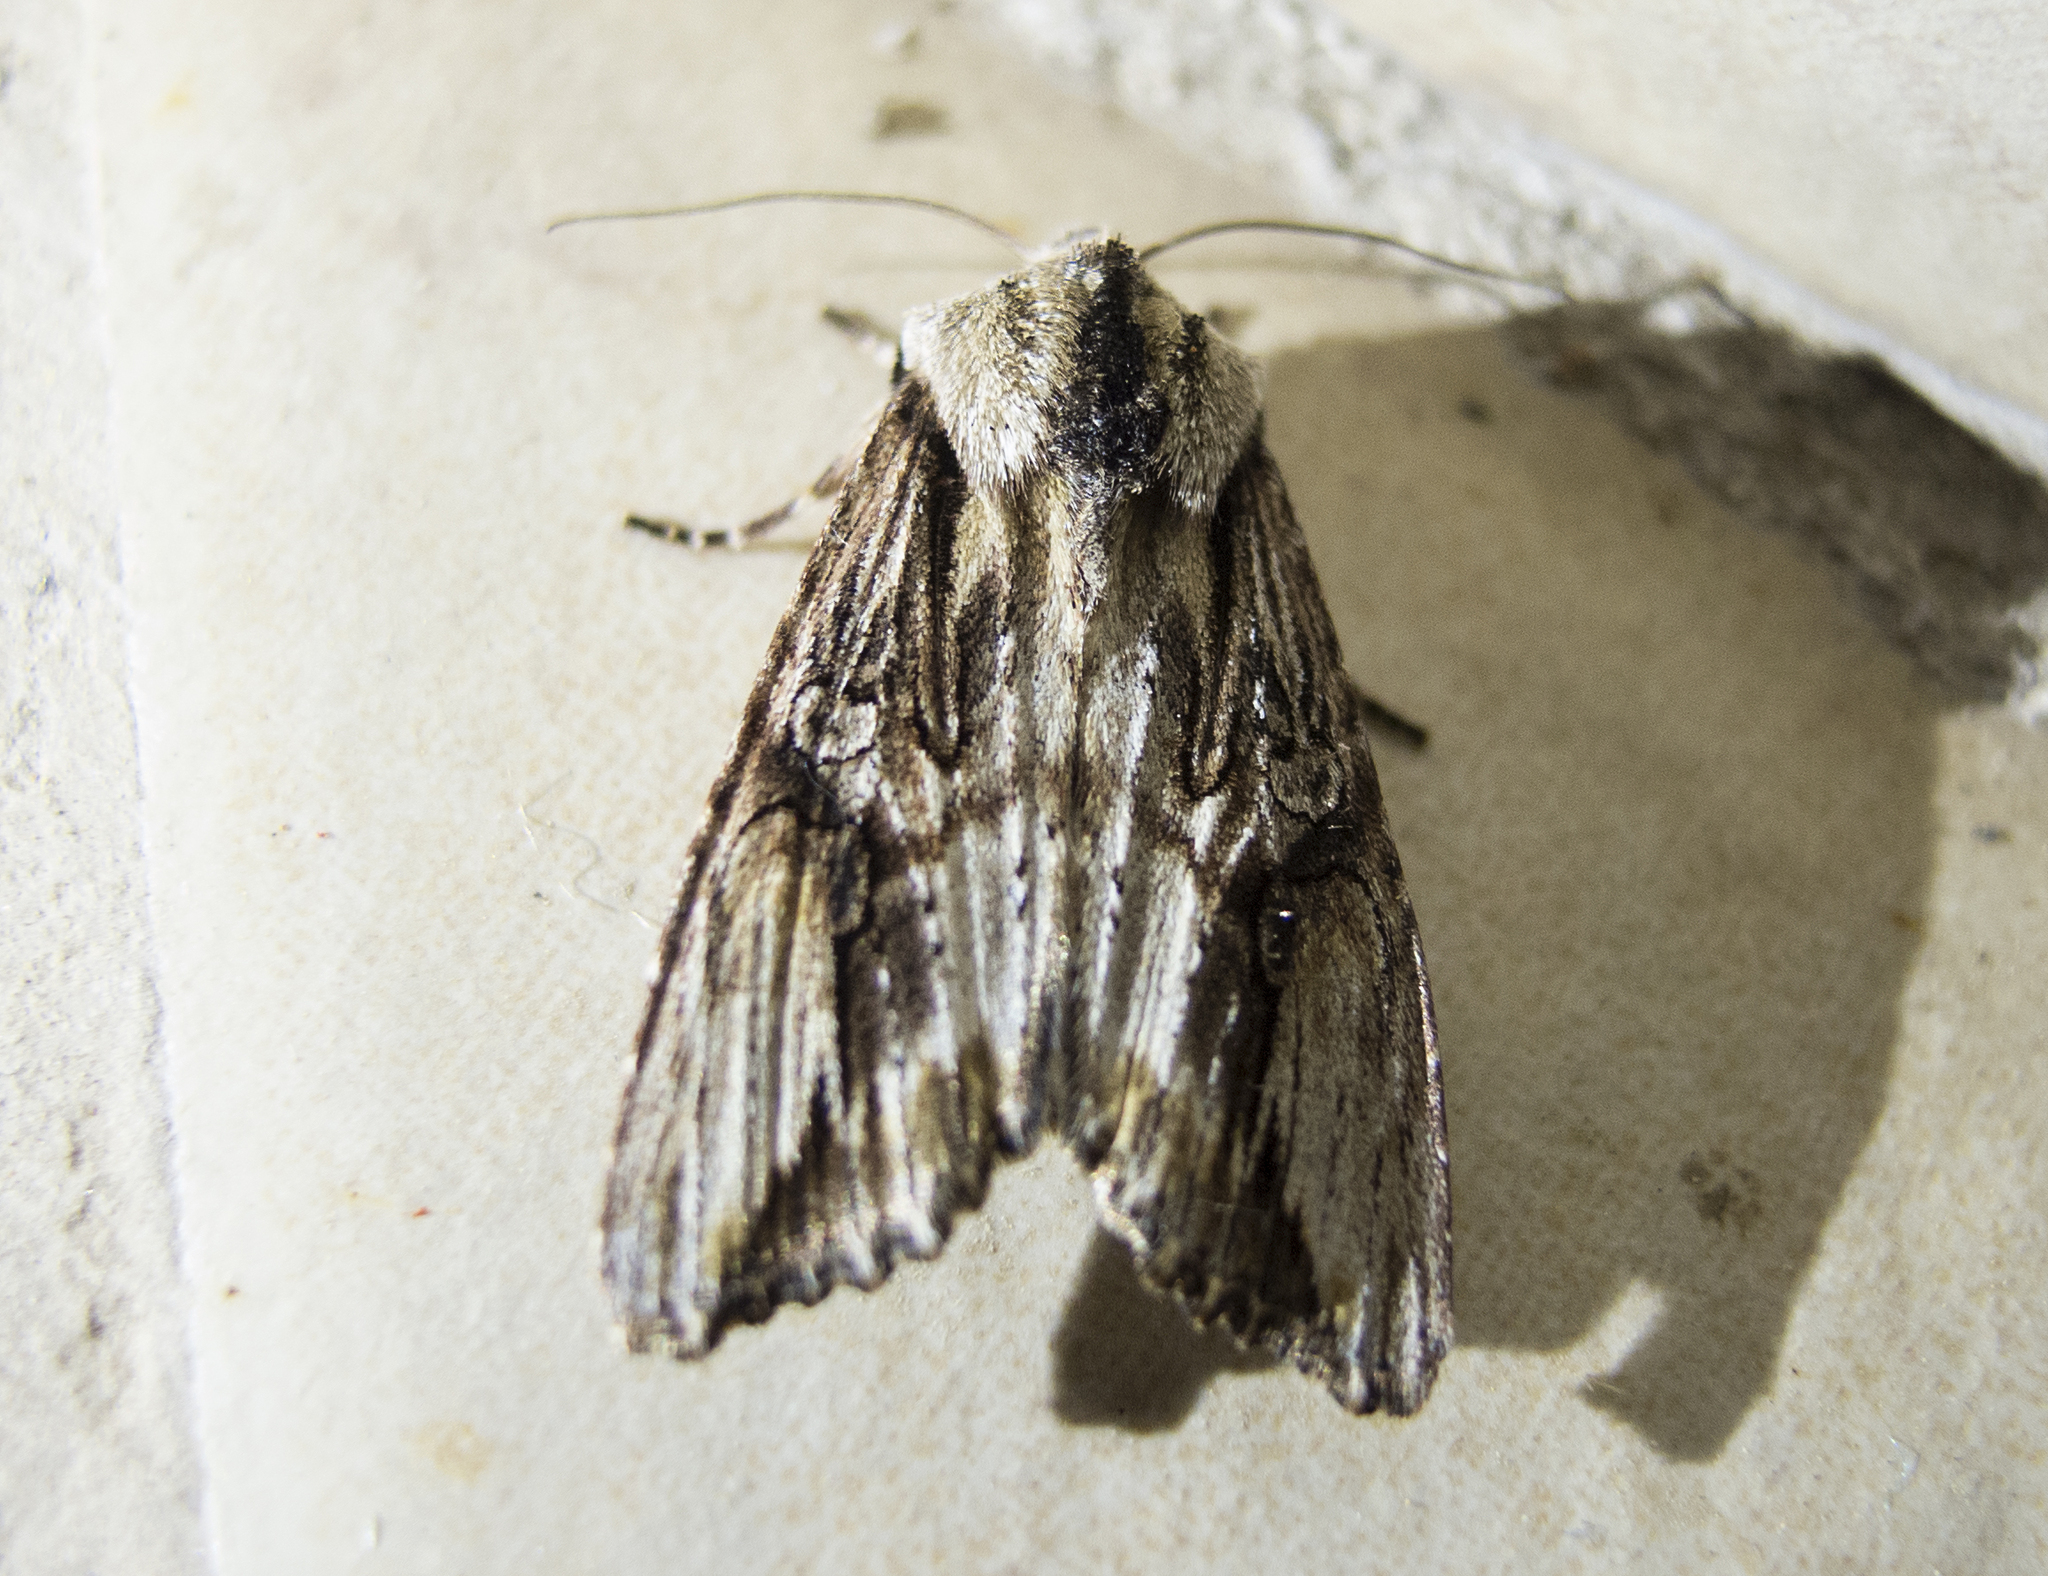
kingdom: Animalia
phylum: Arthropoda
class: Insecta
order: Lepidoptera
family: Noctuidae
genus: Egira
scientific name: Egira
